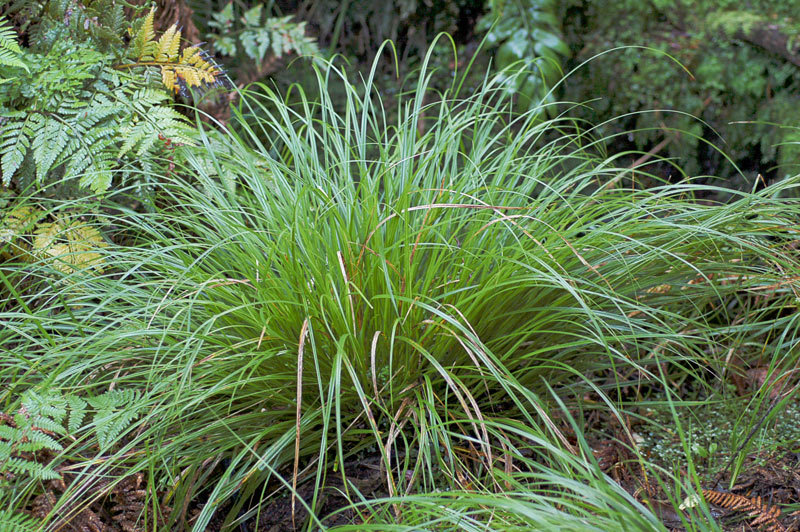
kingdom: Plantae
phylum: Tracheophyta
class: Liliopsida
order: Poales
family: Cyperaceae
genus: Carex
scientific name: Carex auceps
